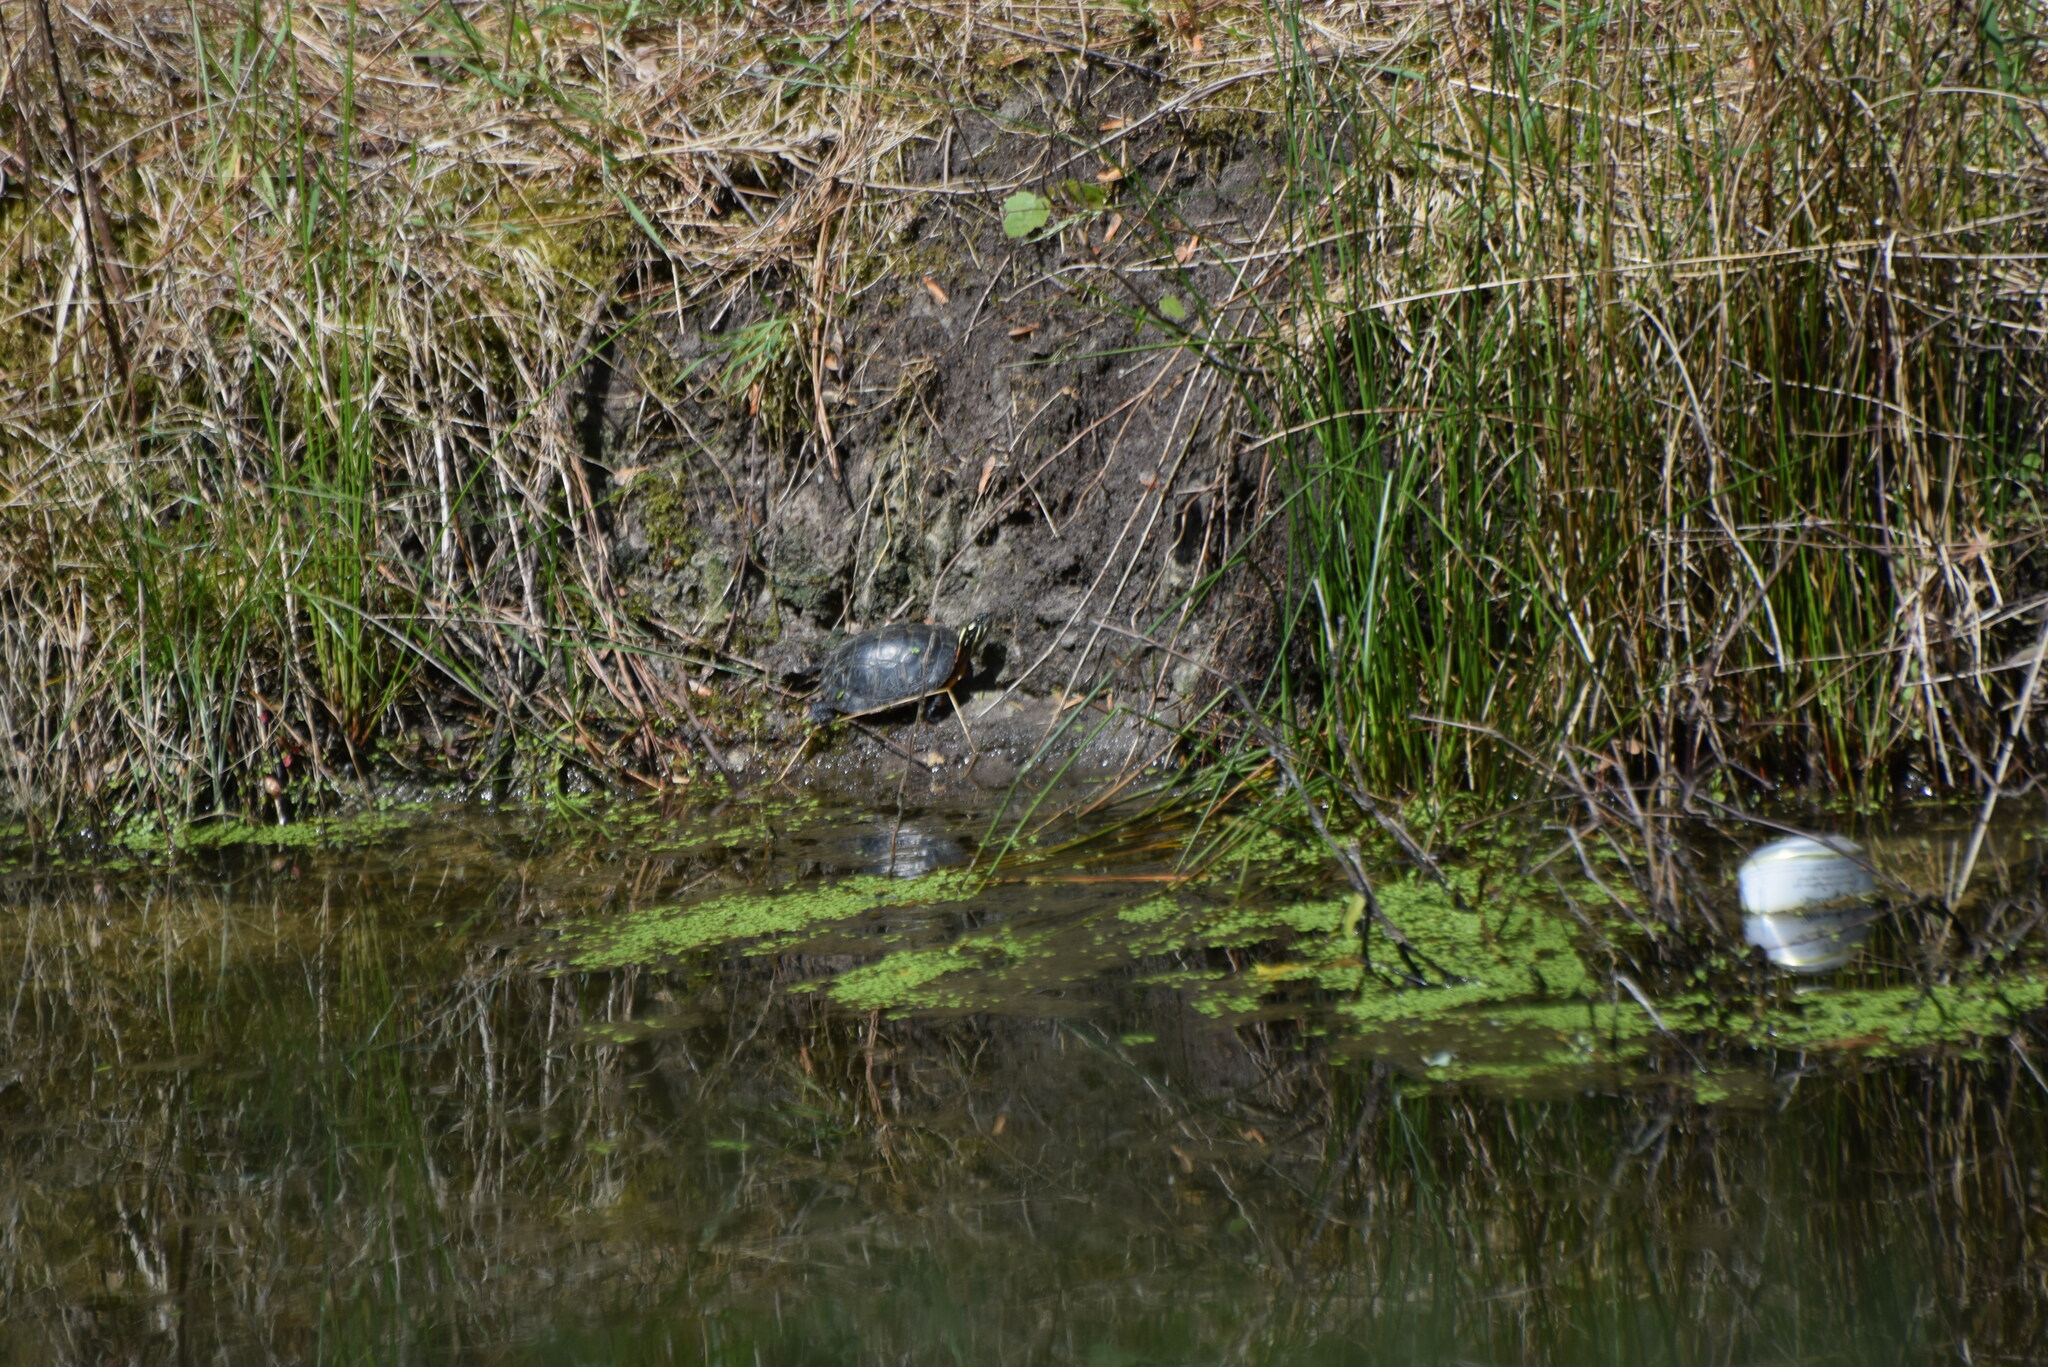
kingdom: Animalia
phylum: Chordata
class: Testudines
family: Emydidae
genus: Chrysemys
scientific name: Chrysemys picta
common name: Painted turtle
